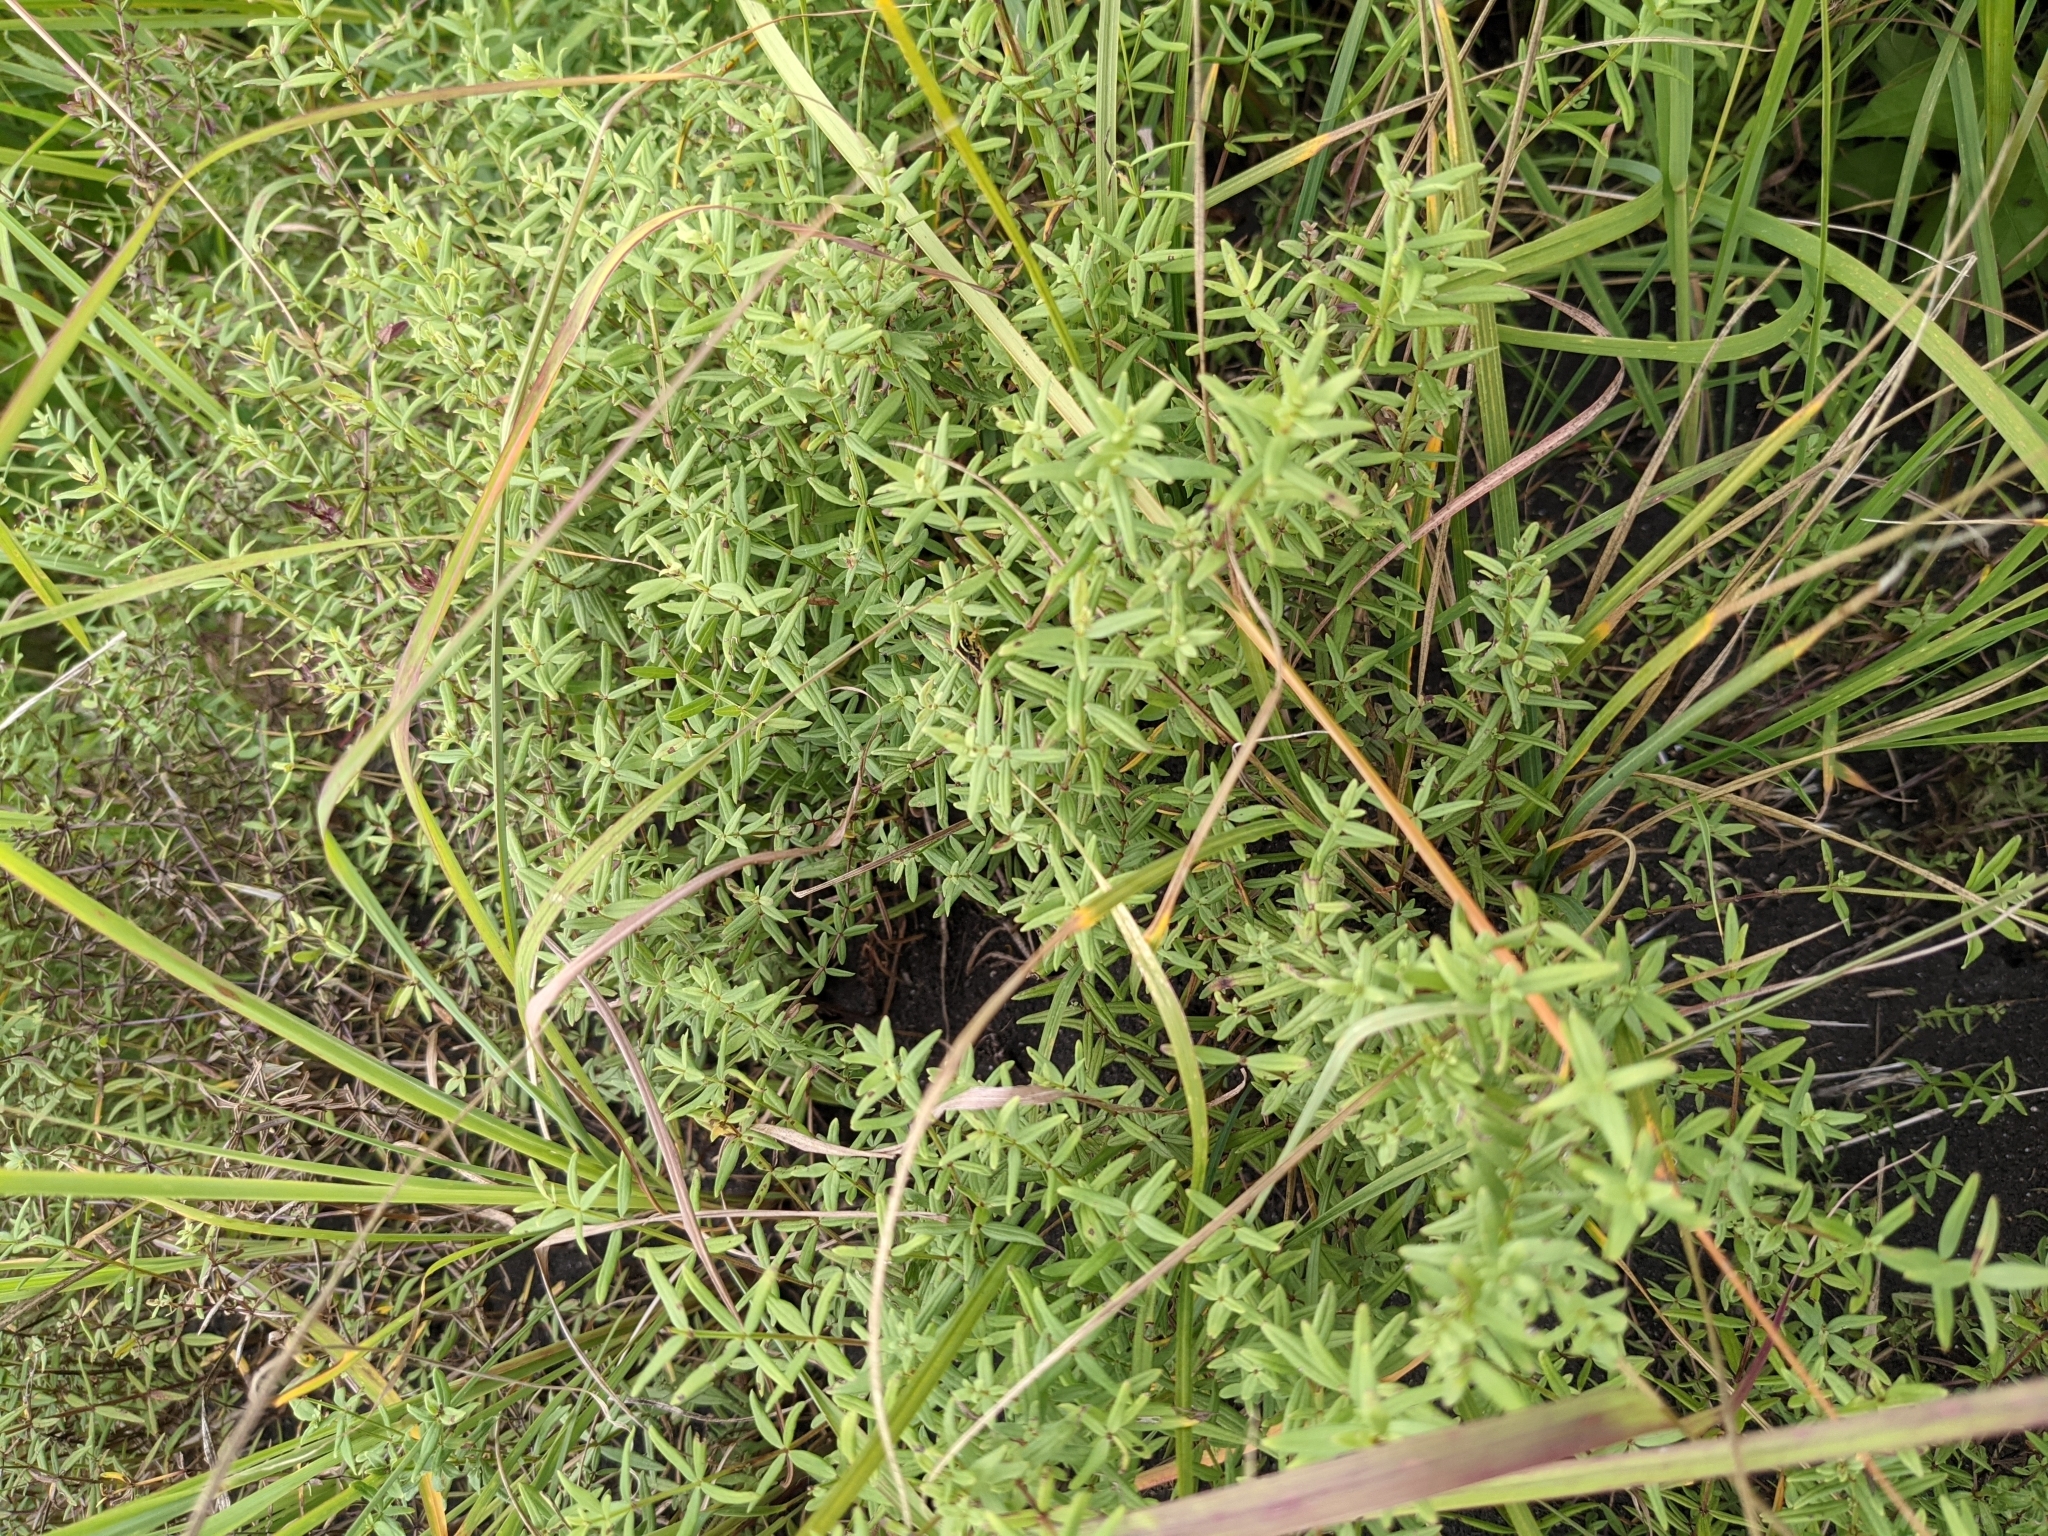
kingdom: Plantae
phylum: Tracheophyta
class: Magnoliopsida
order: Gentianales
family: Rubiaceae
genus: Galium
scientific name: Galium boreale
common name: Northern bedstraw
